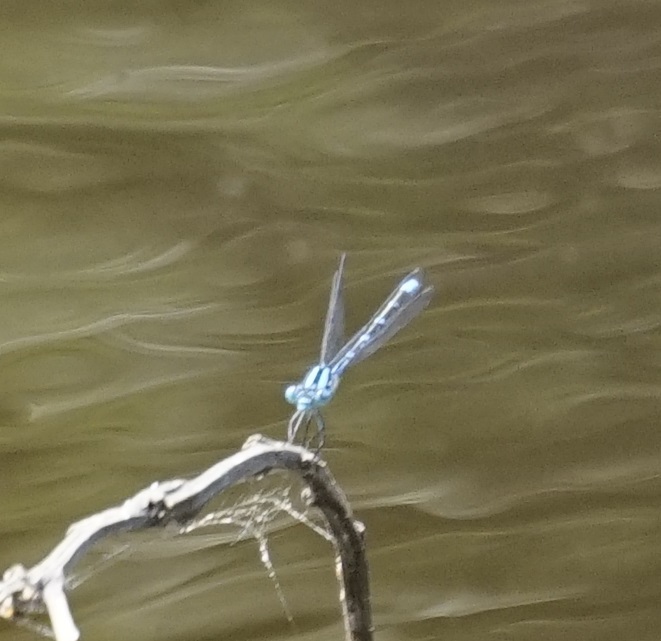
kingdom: Animalia
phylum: Arthropoda
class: Insecta
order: Odonata
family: Coenagrionidae
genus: Austroagrion
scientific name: Austroagrion watsoni
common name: Eastern billabongfly
